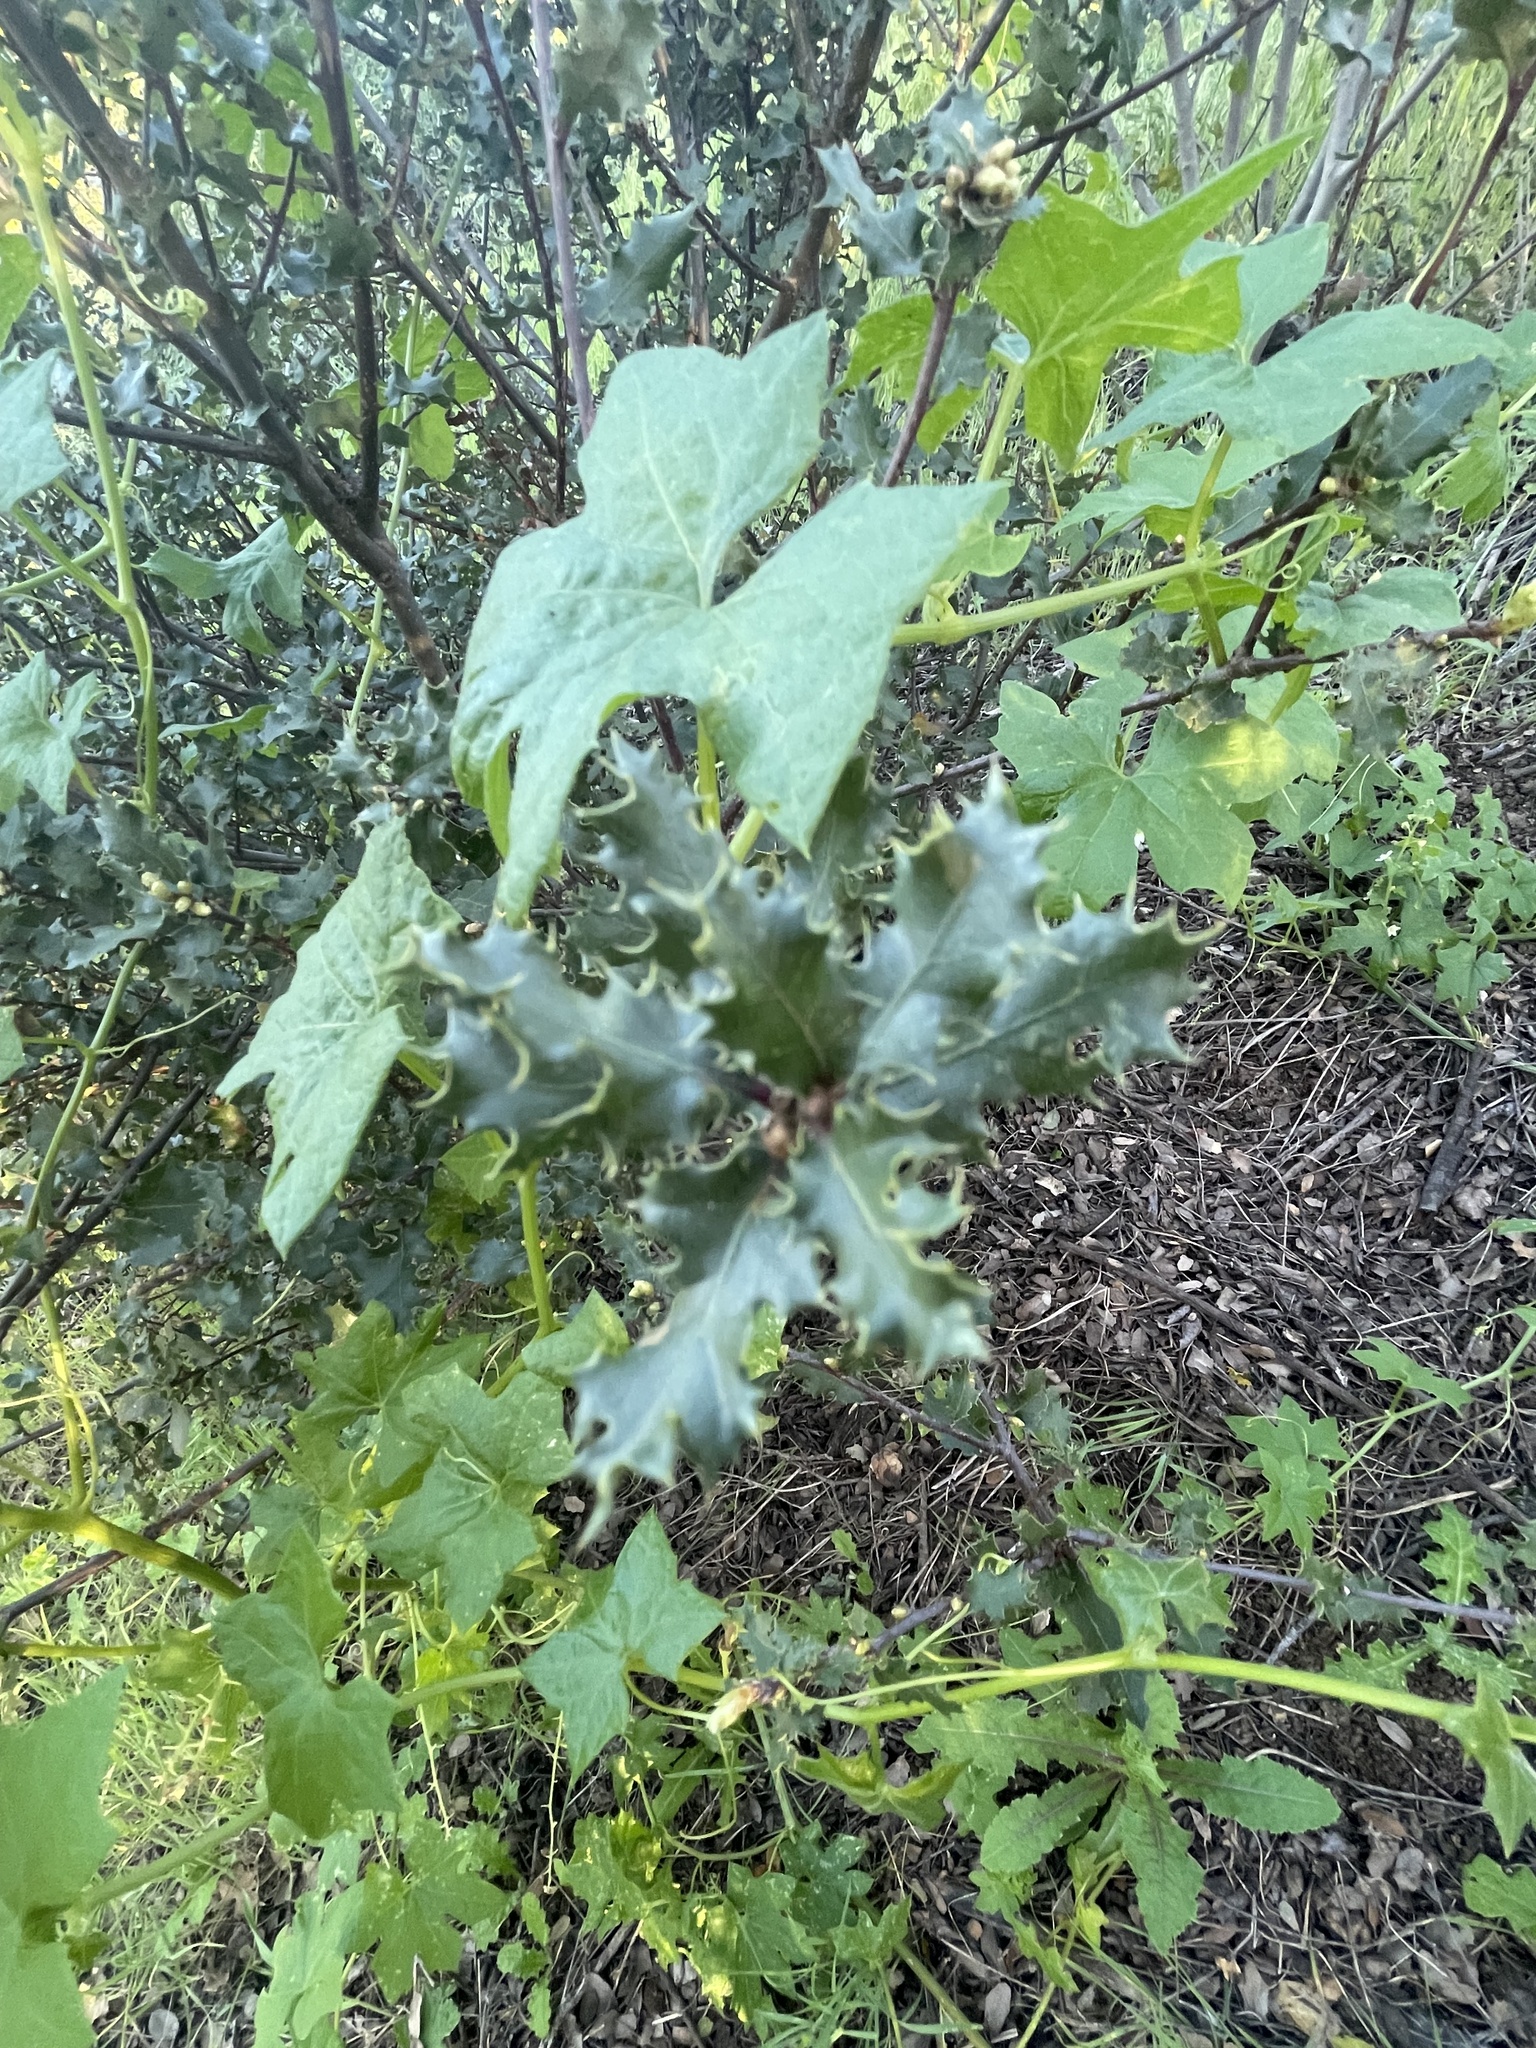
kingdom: Plantae
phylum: Tracheophyta
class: Magnoliopsida
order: Fagales
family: Fagaceae
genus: Quercus
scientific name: Quercus berberidifolia
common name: California scrub oak
